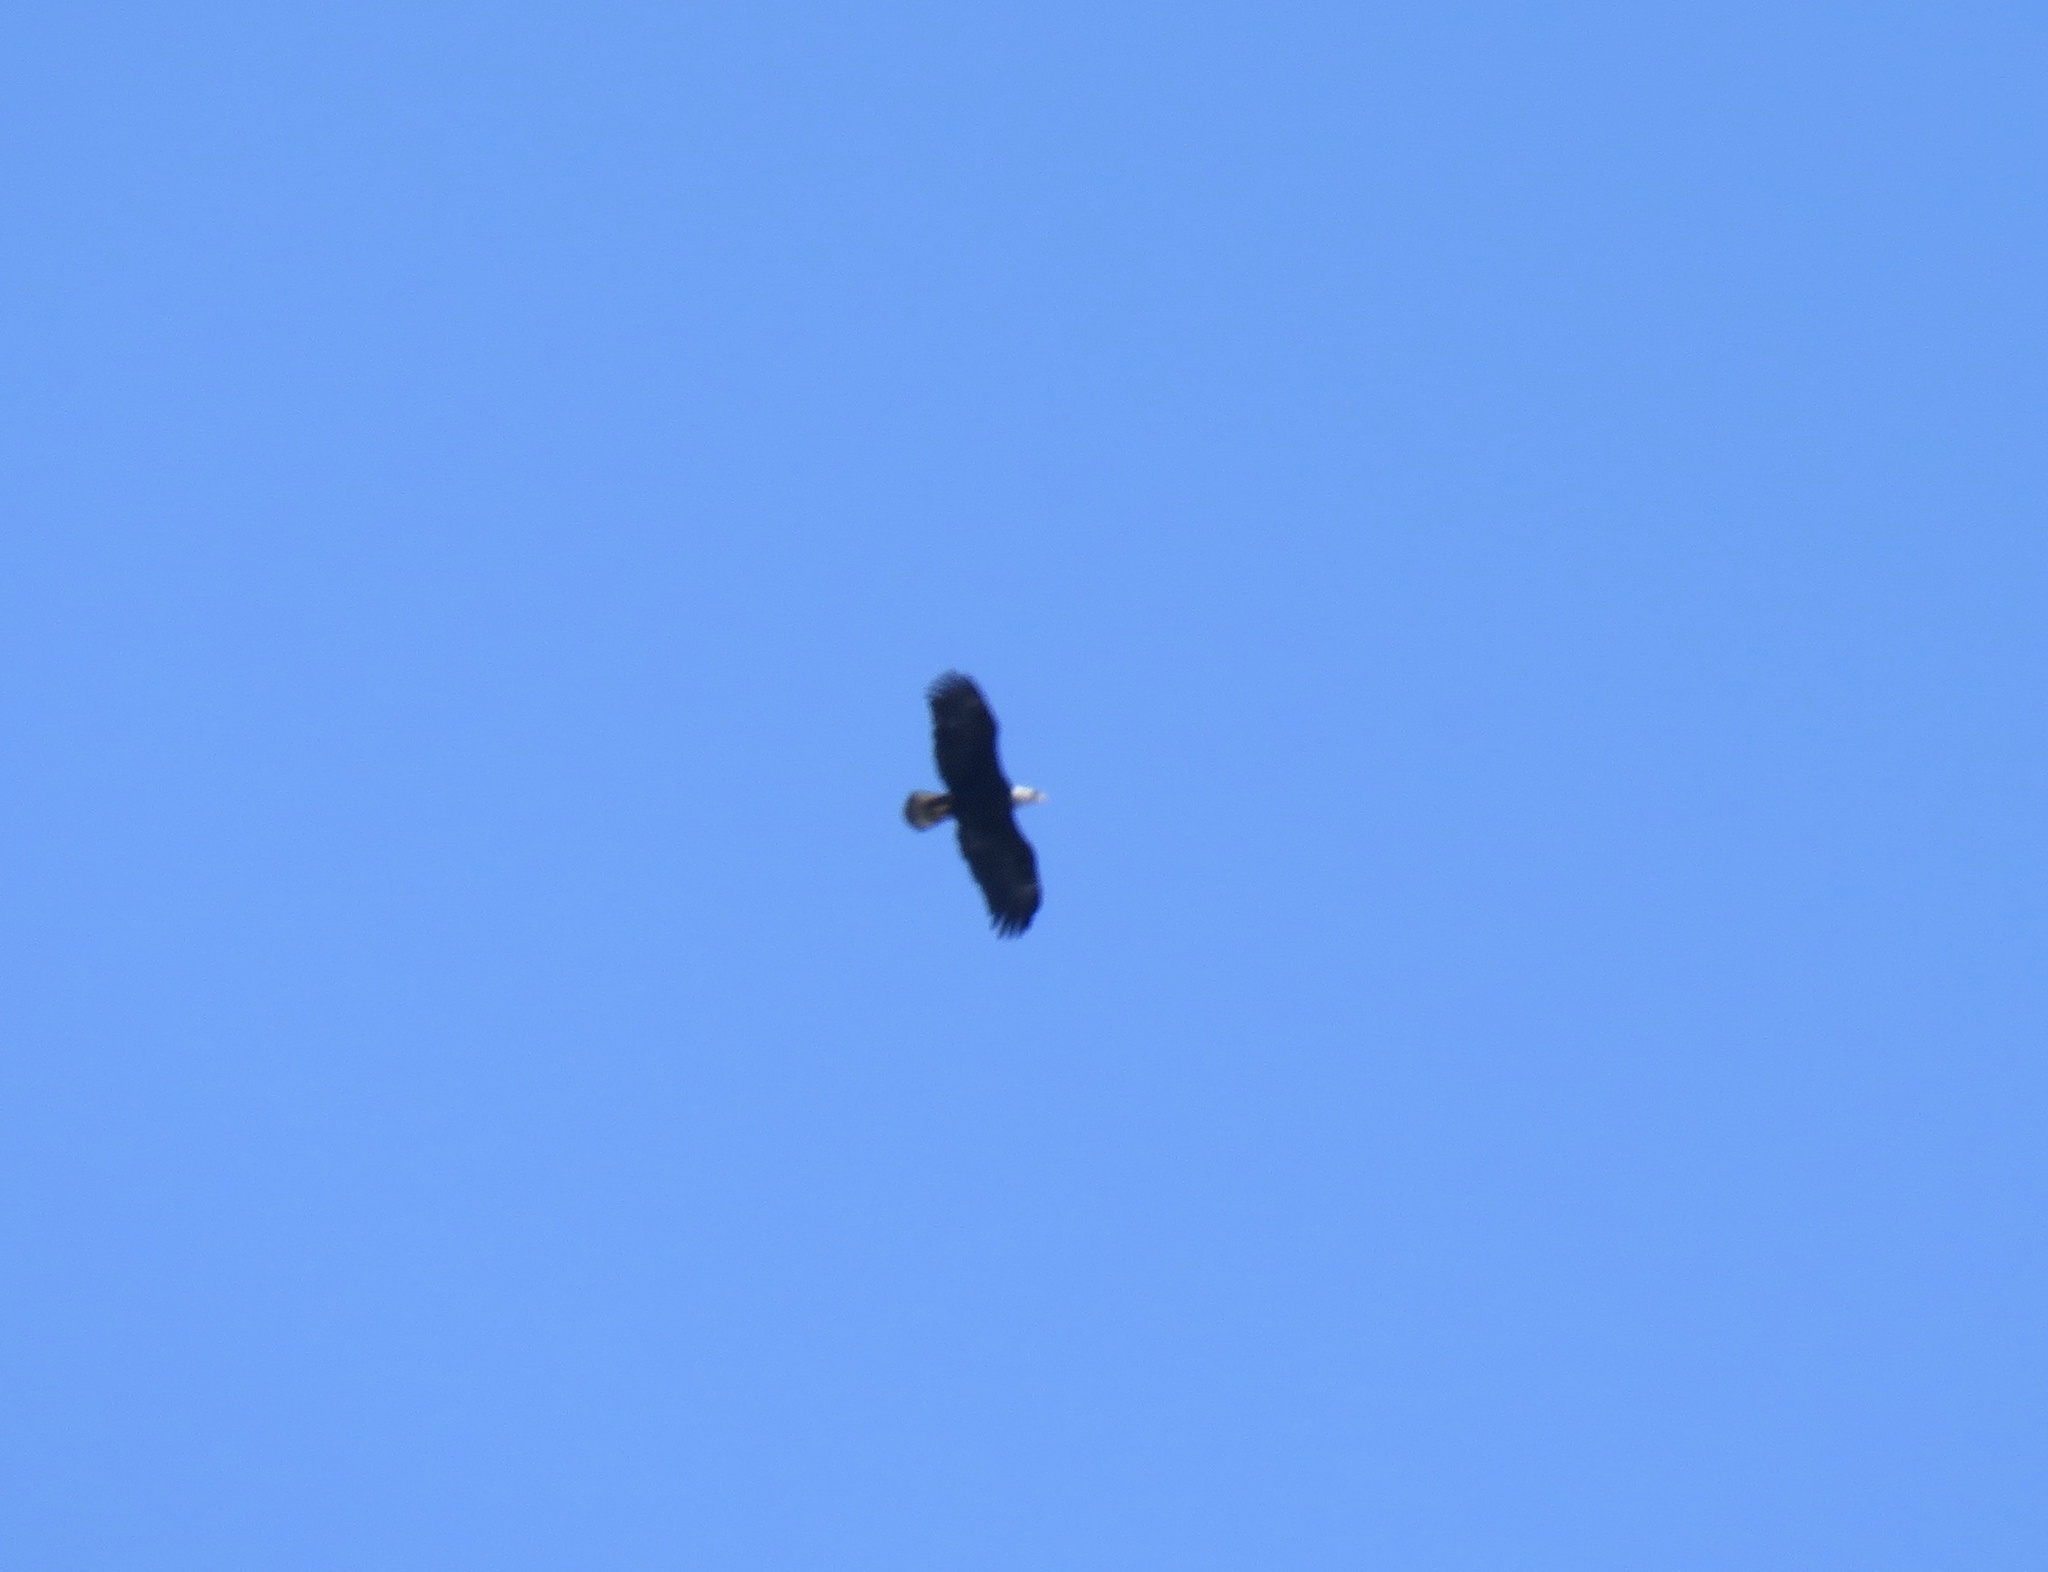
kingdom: Animalia
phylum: Chordata
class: Aves
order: Accipitriformes
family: Accipitridae
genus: Haliaeetus
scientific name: Haliaeetus leucocephalus
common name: Bald eagle
